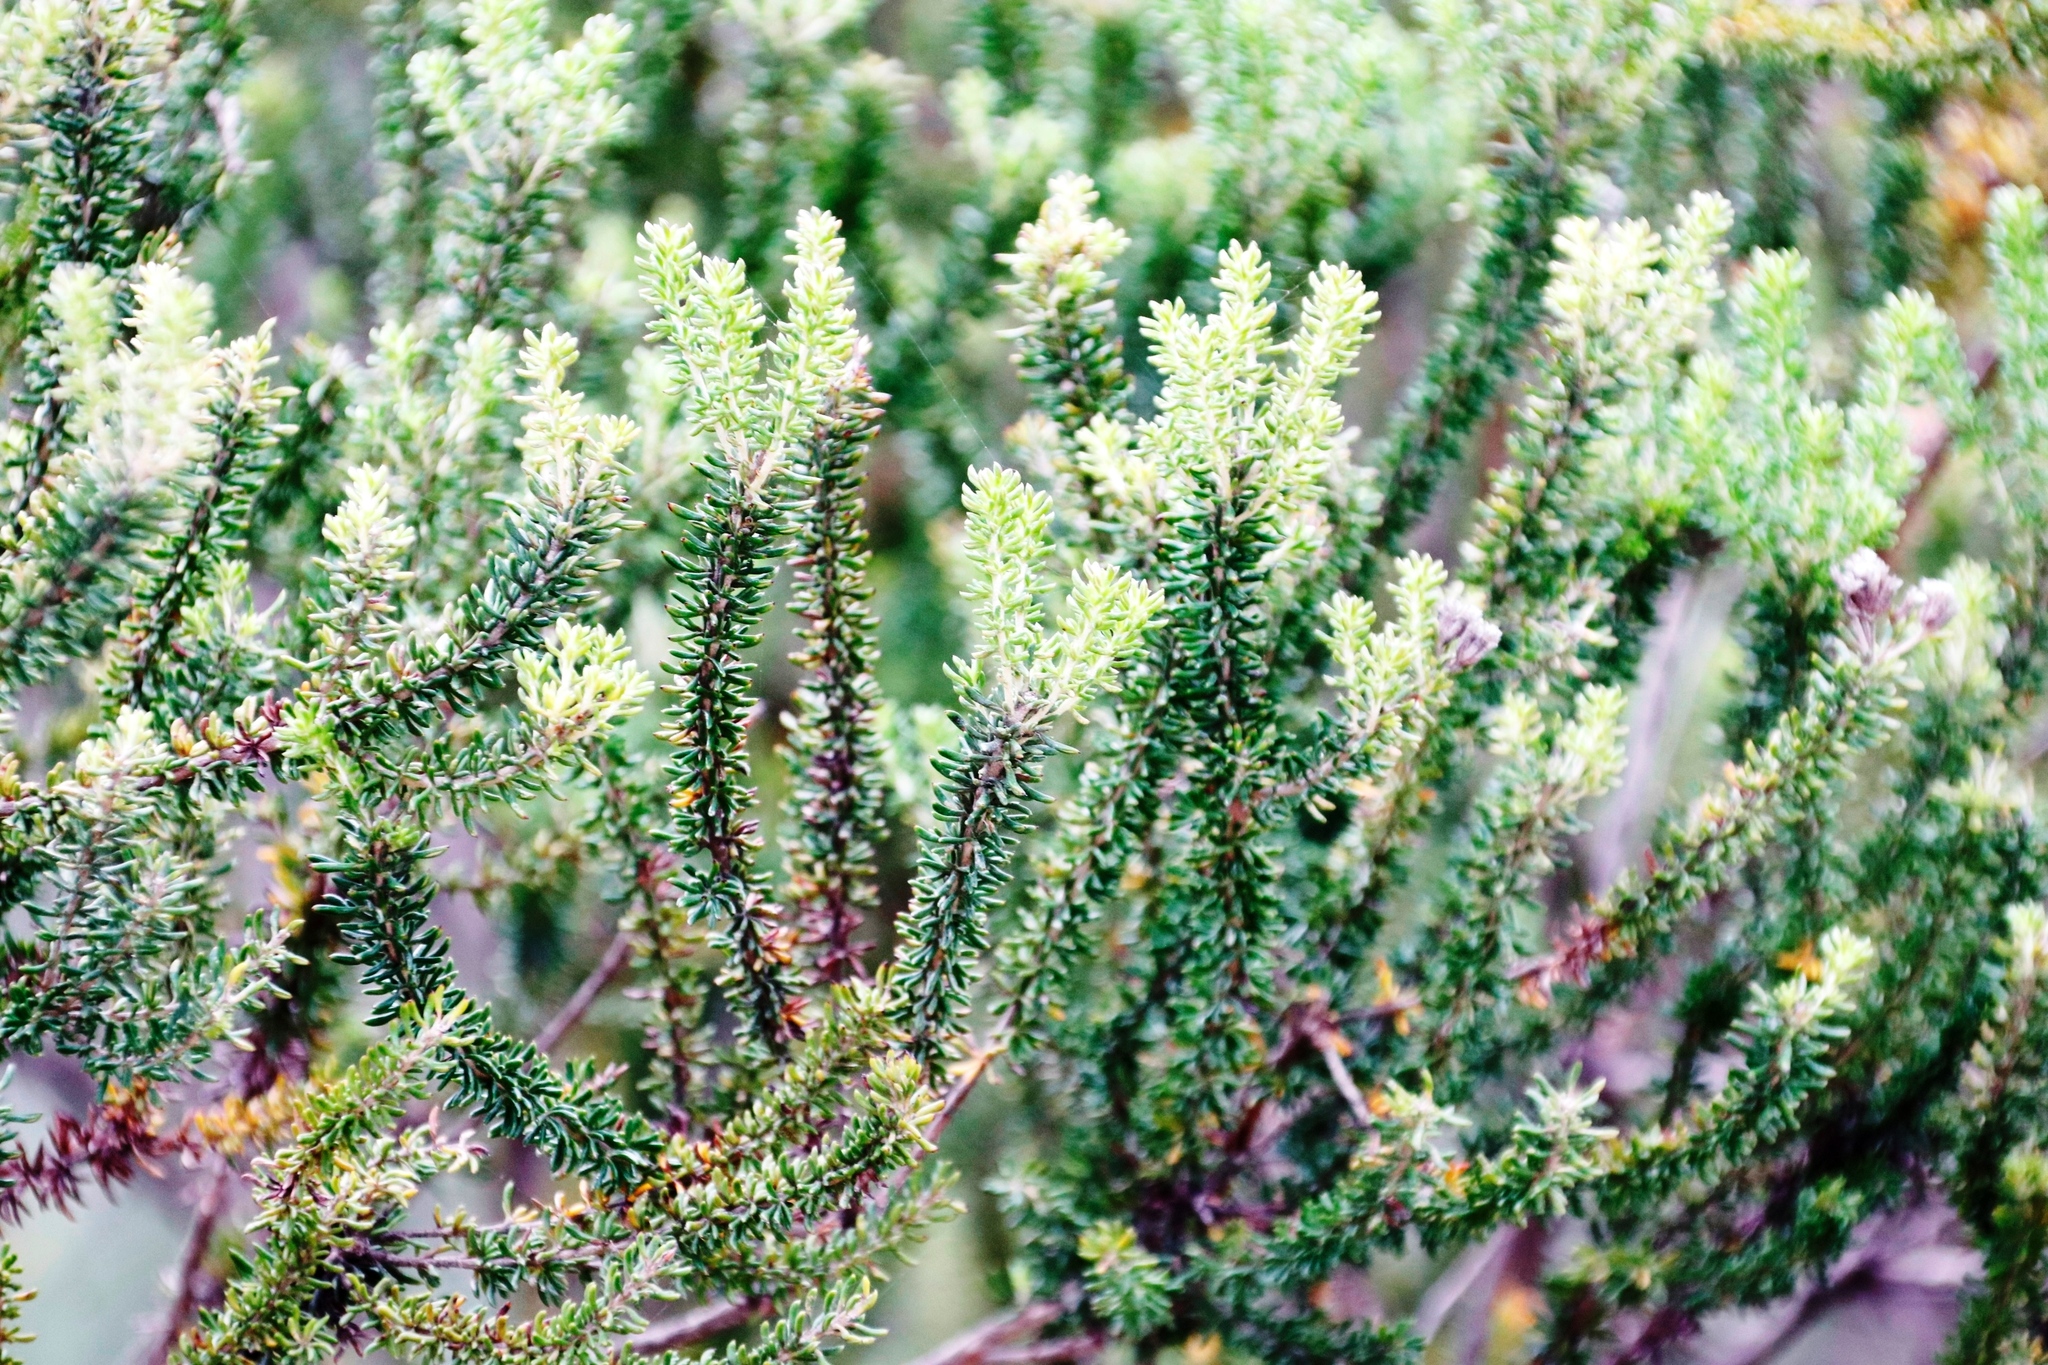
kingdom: Plantae
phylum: Tracheophyta
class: Magnoliopsida
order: Asterales
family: Asteraceae
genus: Metalasia
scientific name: Metalasia densa
